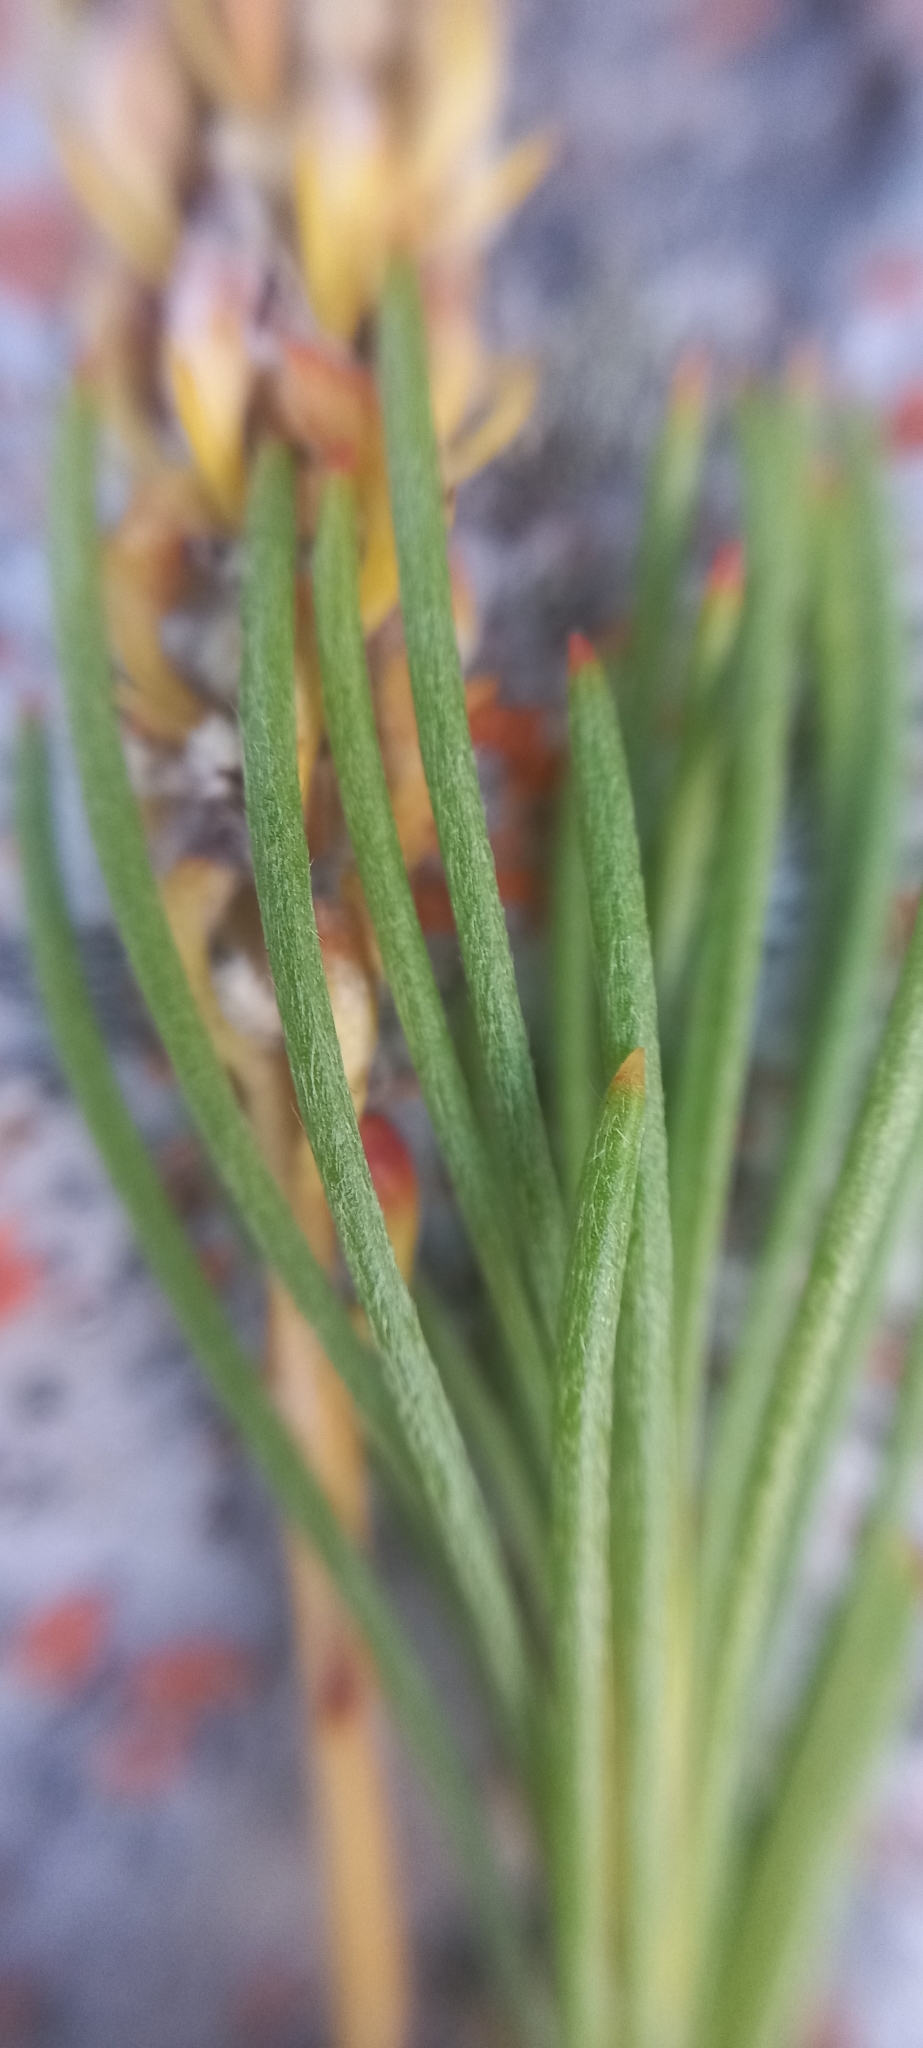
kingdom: Plantae
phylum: Tracheophyta
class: Magnoliopsida
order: Proteales
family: Proteaceae
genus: Spatalla
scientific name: Spatalla curvifolia
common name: White-stalked spoon
